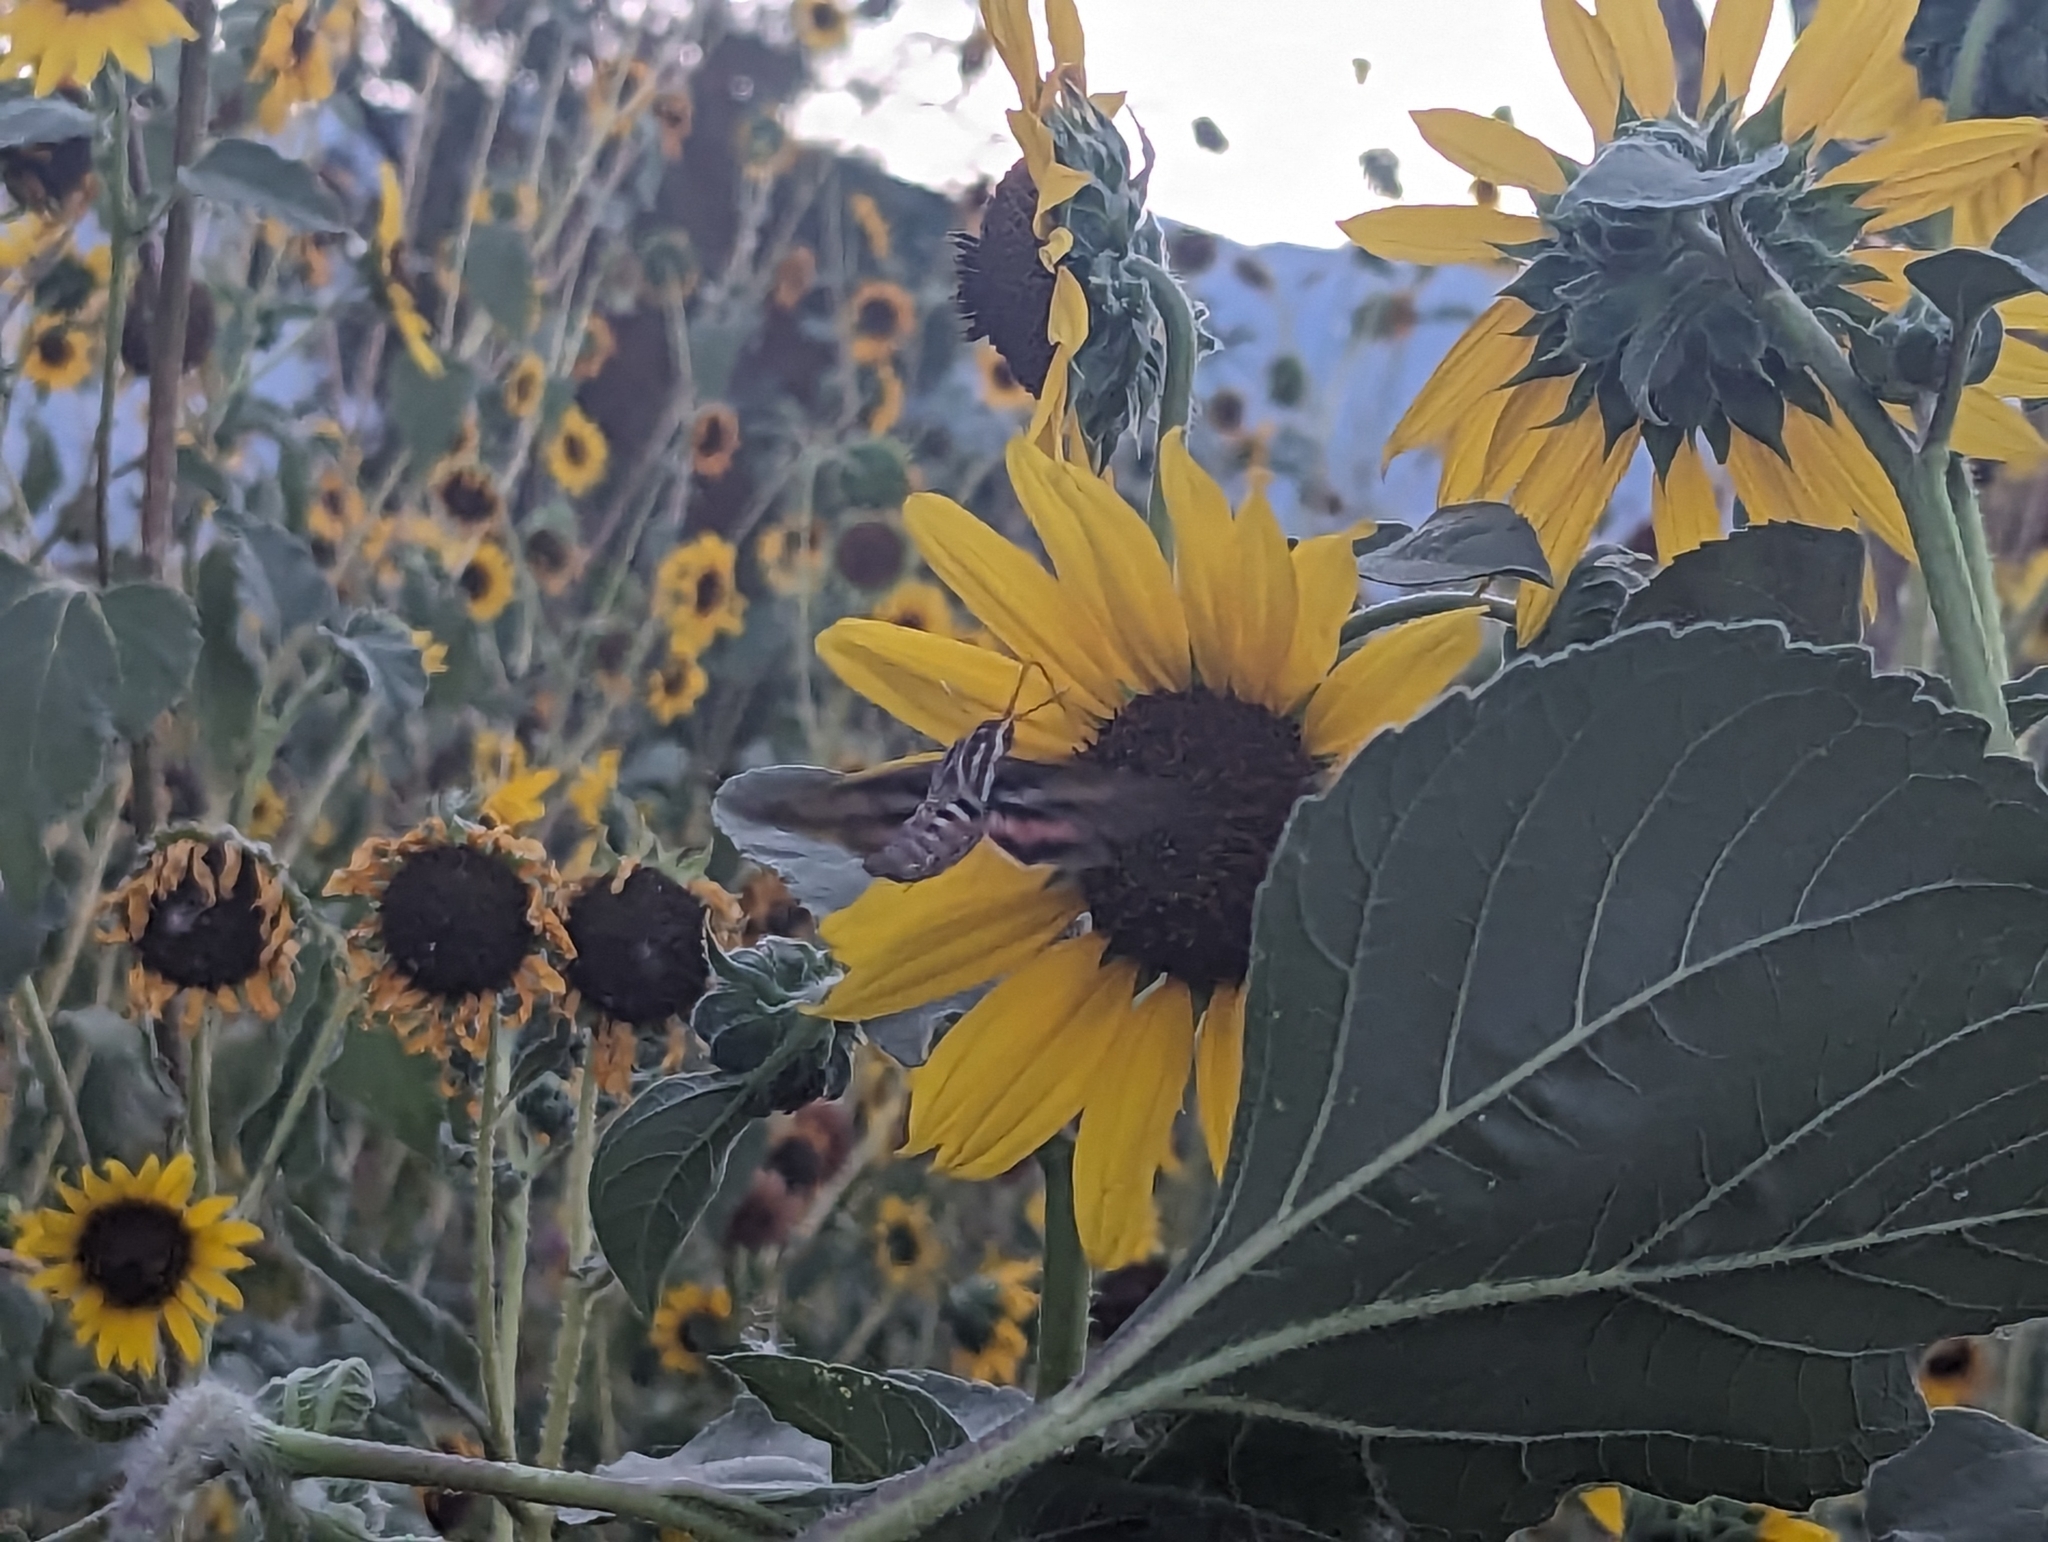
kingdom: Animalia
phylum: Arthropoda
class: Insecta
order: Lepidoptera
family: Sphingidae
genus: Hyles
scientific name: Hyles lineata
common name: White-lined sphinx
